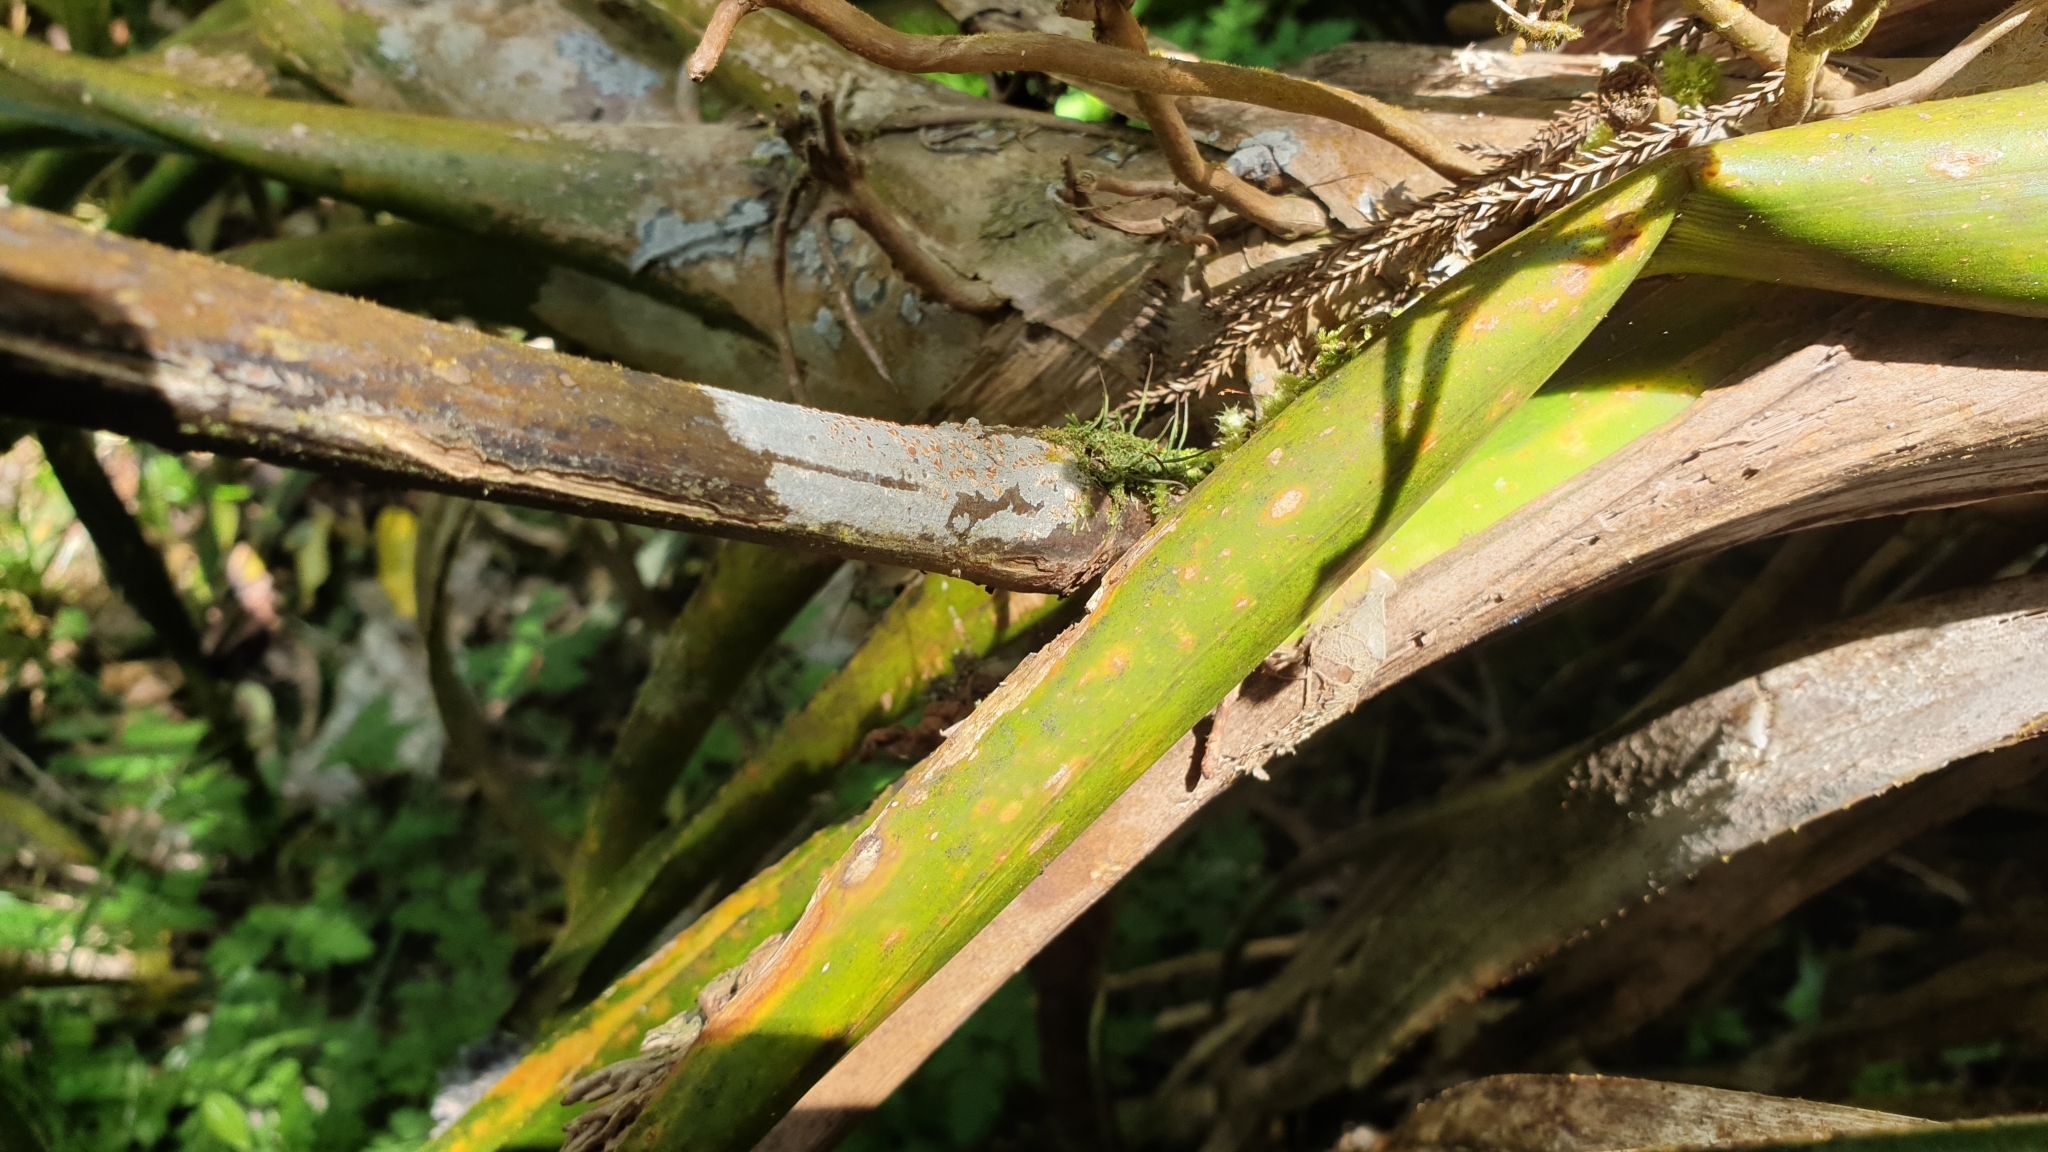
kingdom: Plantae
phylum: Anthocerotophyta
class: Anthocerotopsida
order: Dendrocerotales
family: Dendrocerotaceae
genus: Dendroceros
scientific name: Dendroceros validus
